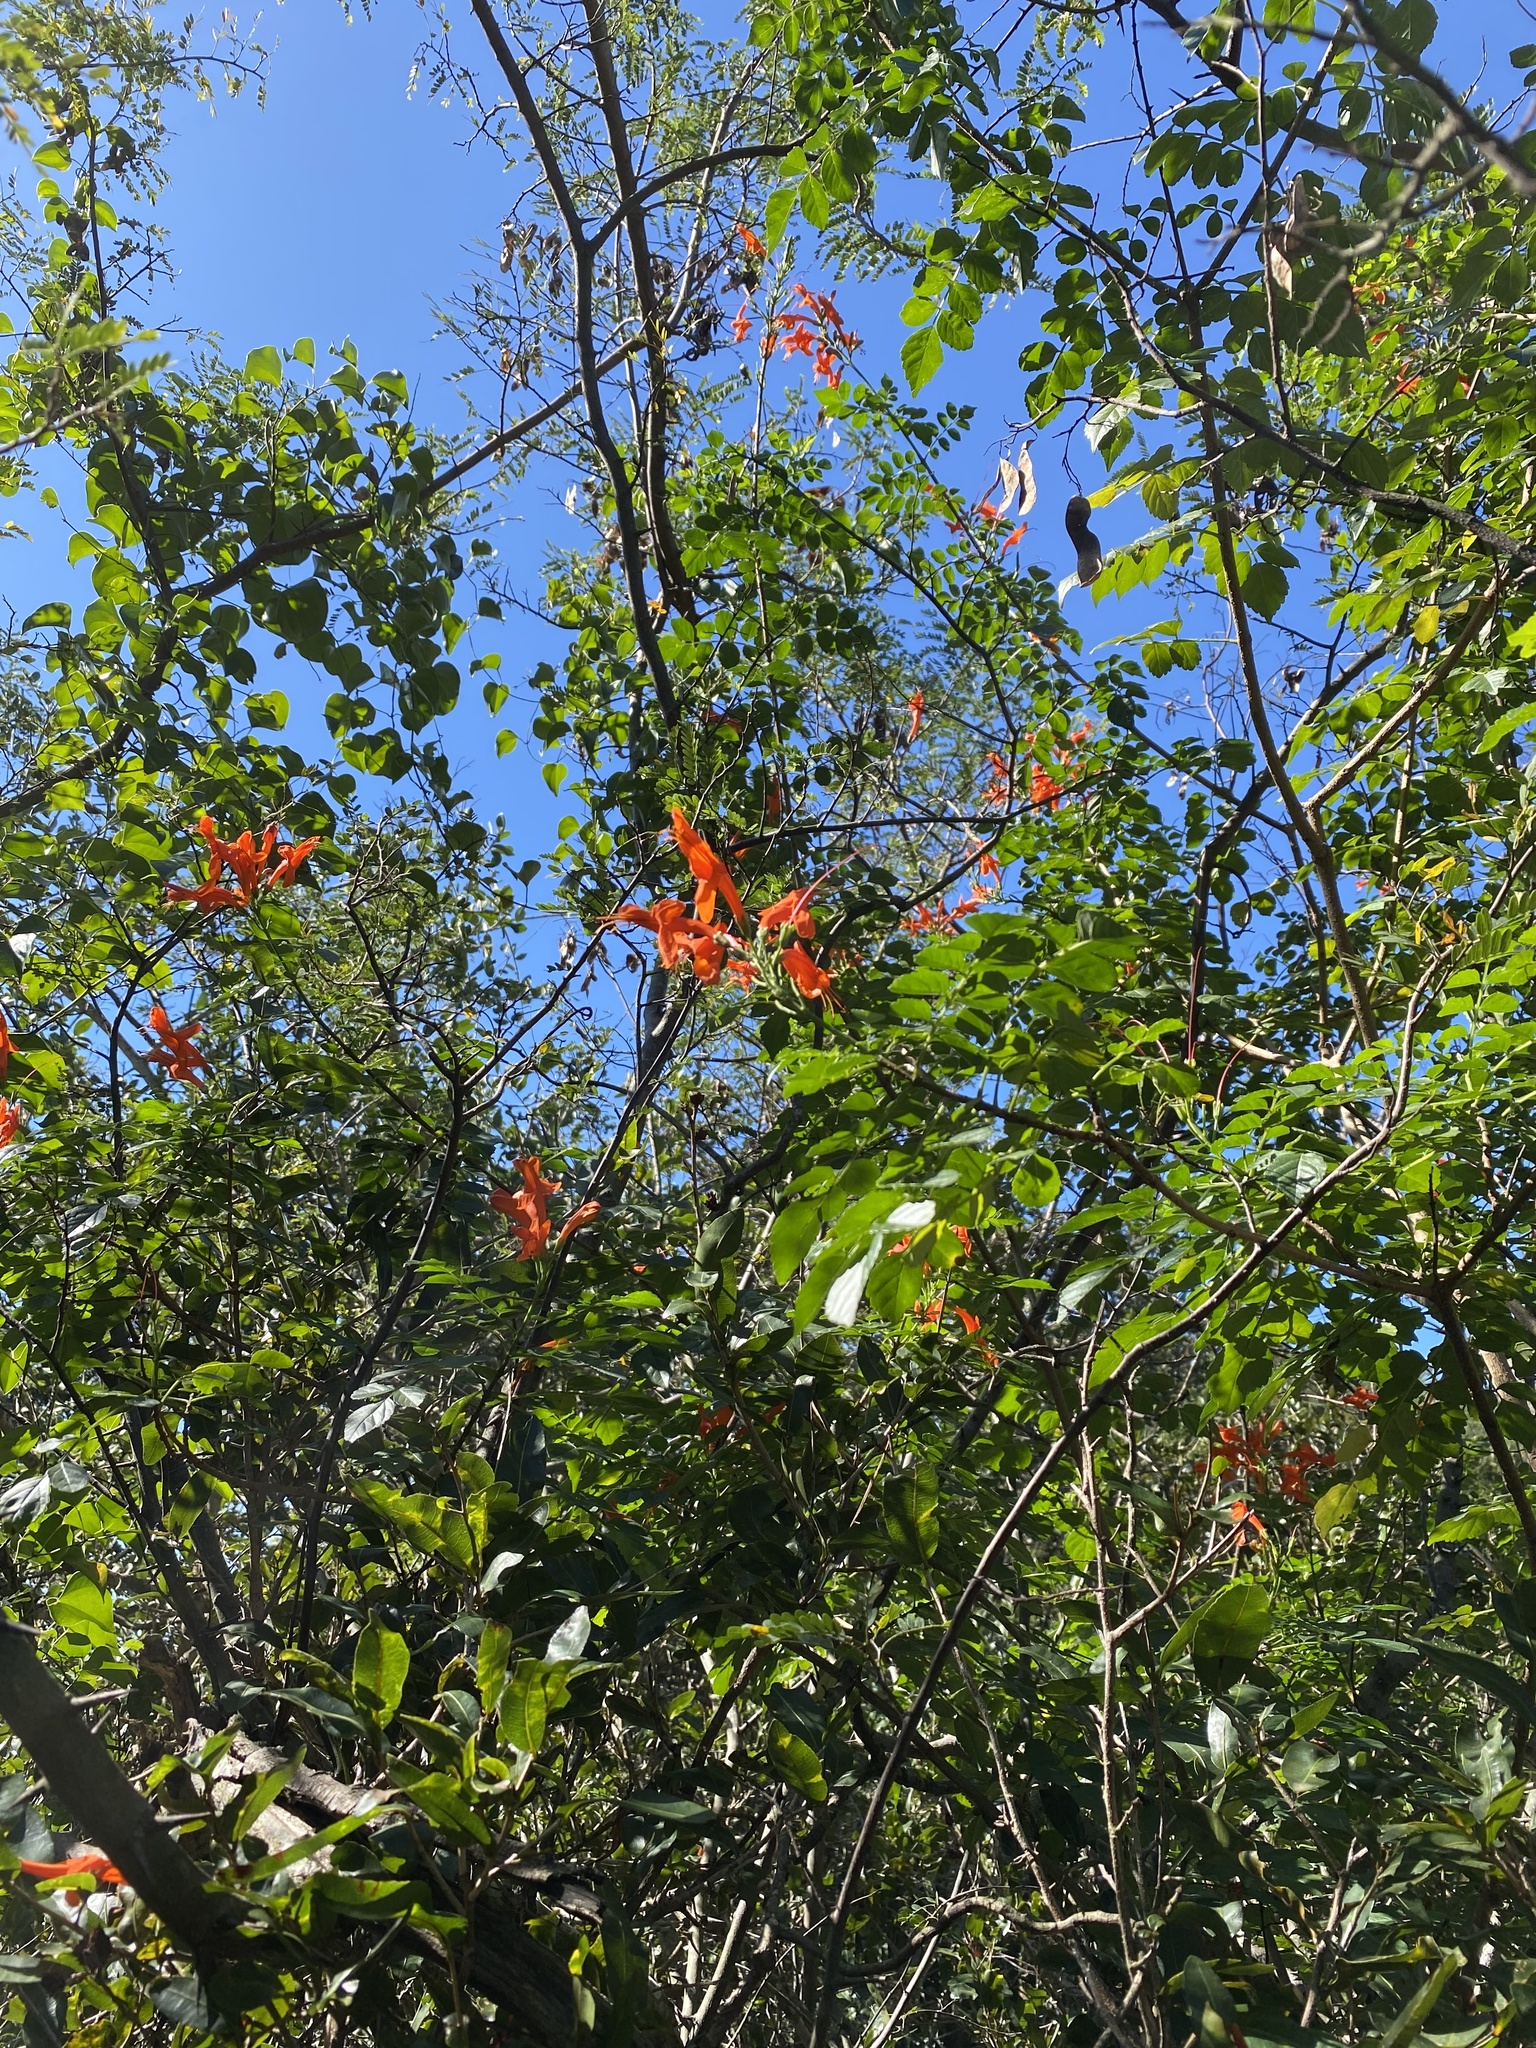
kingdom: Plantae
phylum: Tracheophyta
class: Magnoliopsida
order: Lamiales
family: Bignoniaceae
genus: Tecomaria
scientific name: Tecomaria capensis
